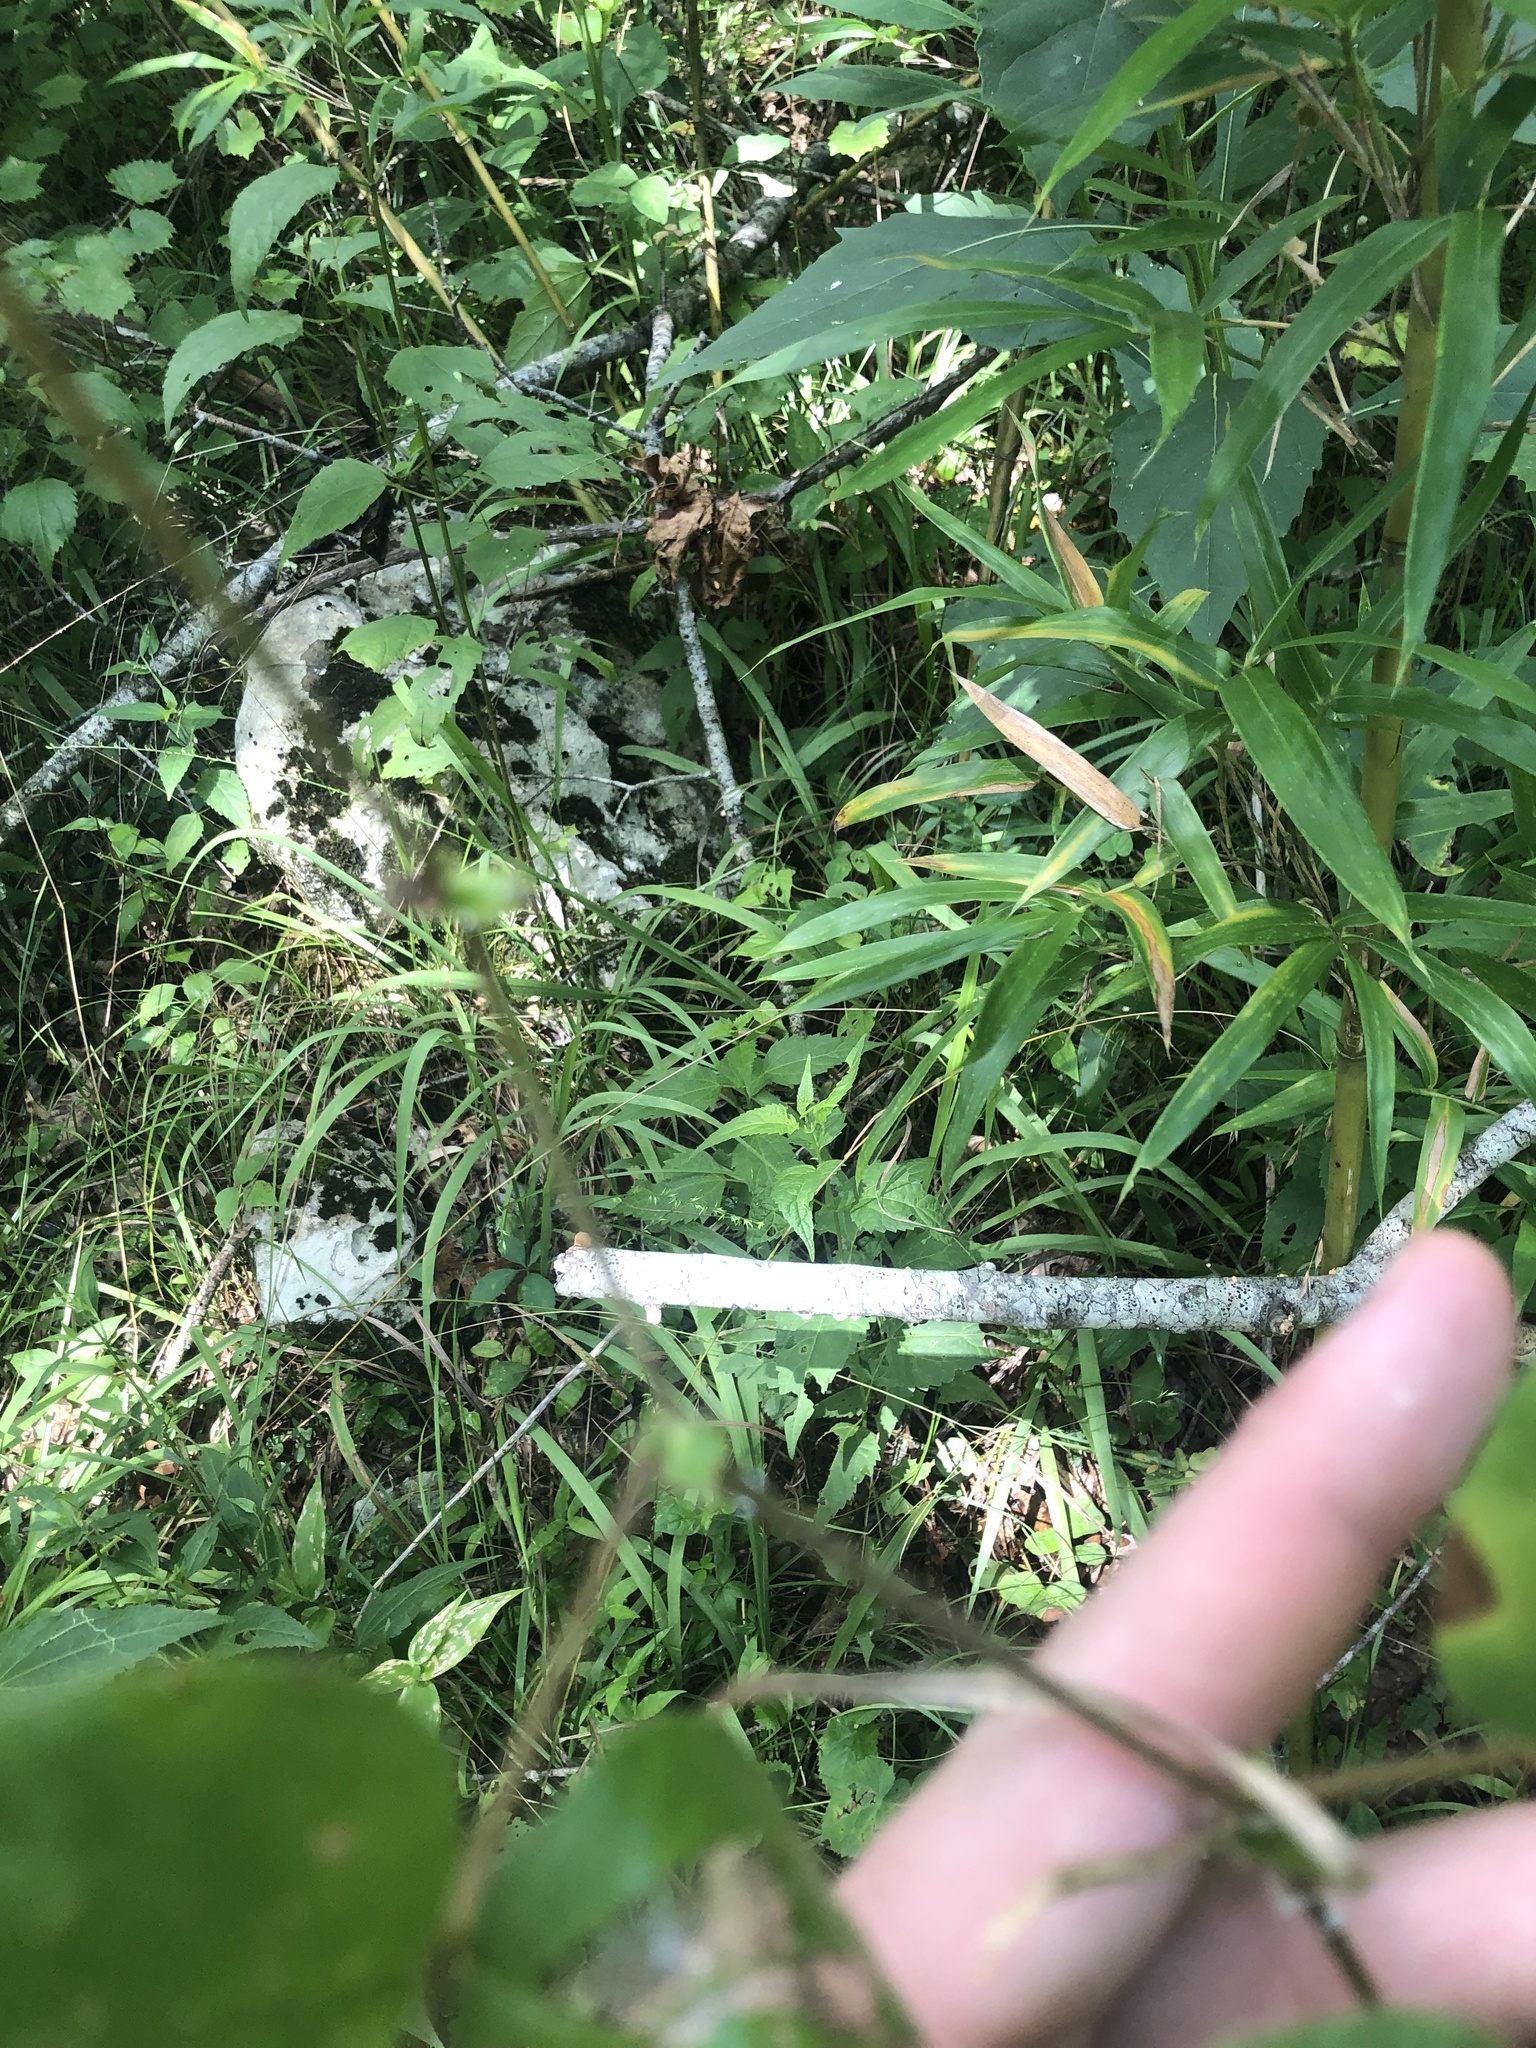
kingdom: Plantae
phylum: Tracheophyta
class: Magnoliopsida
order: Fabales
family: Fabaceae
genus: Desmodium
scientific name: Desmodium rotundifolium
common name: Dollarleaf
